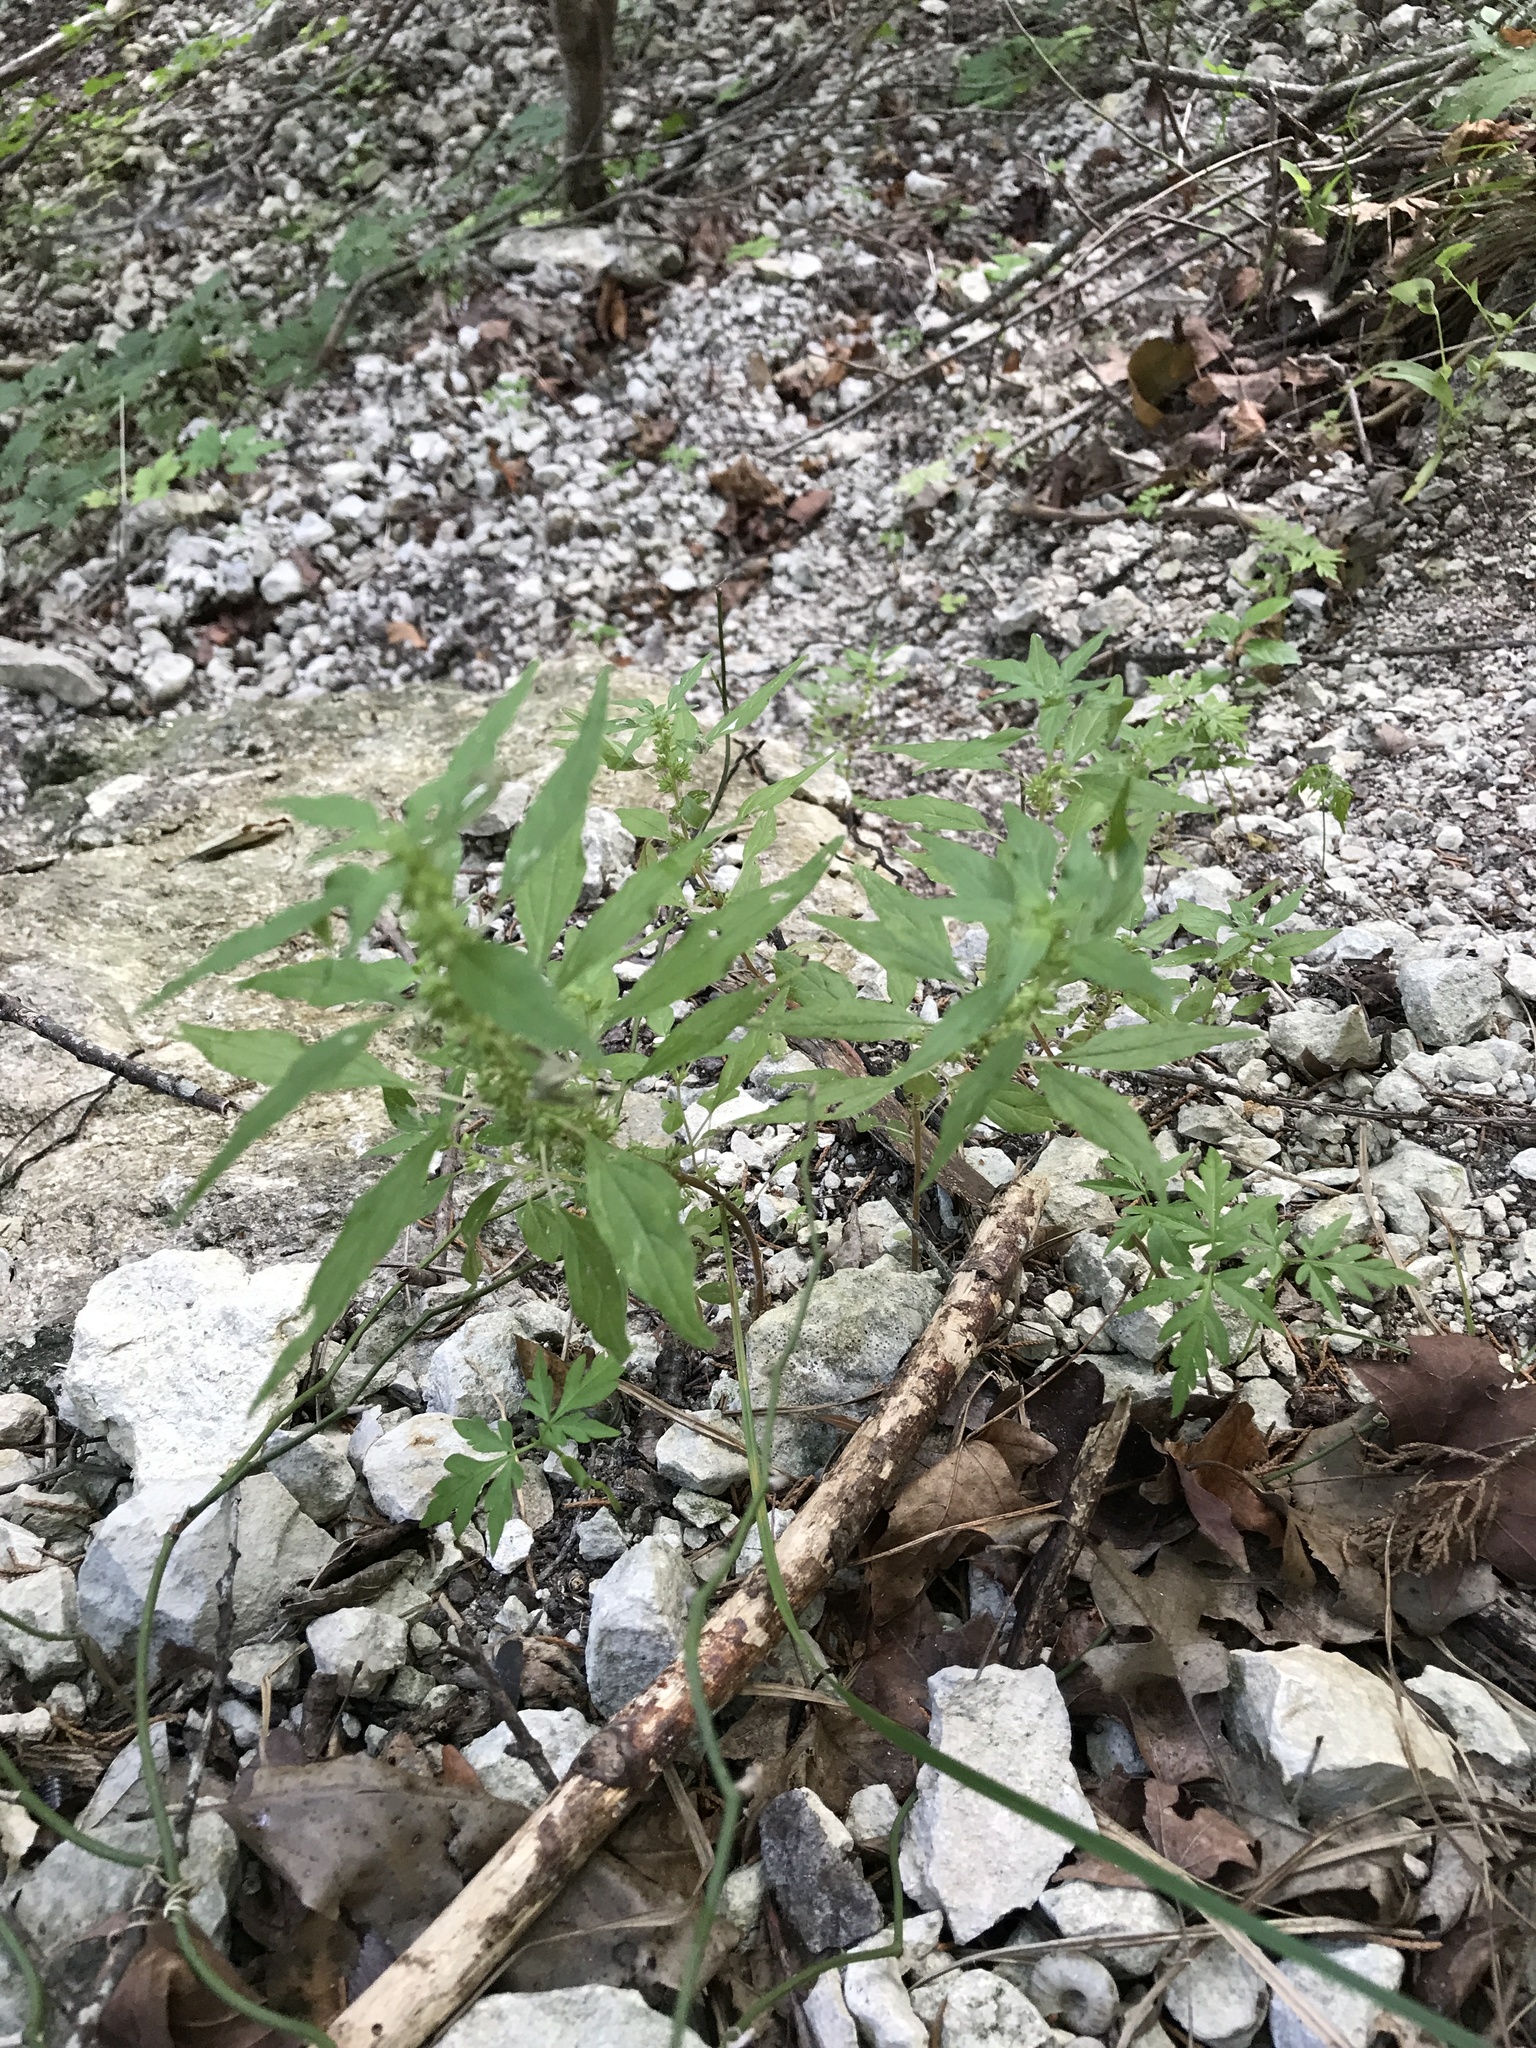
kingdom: Plantae
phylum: Tracheophyta
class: Magnoliopsida
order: Rosales
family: Urticaceae
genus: Parietaria
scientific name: Parietaria pensylvanica
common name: Pennsylvania pellitory
